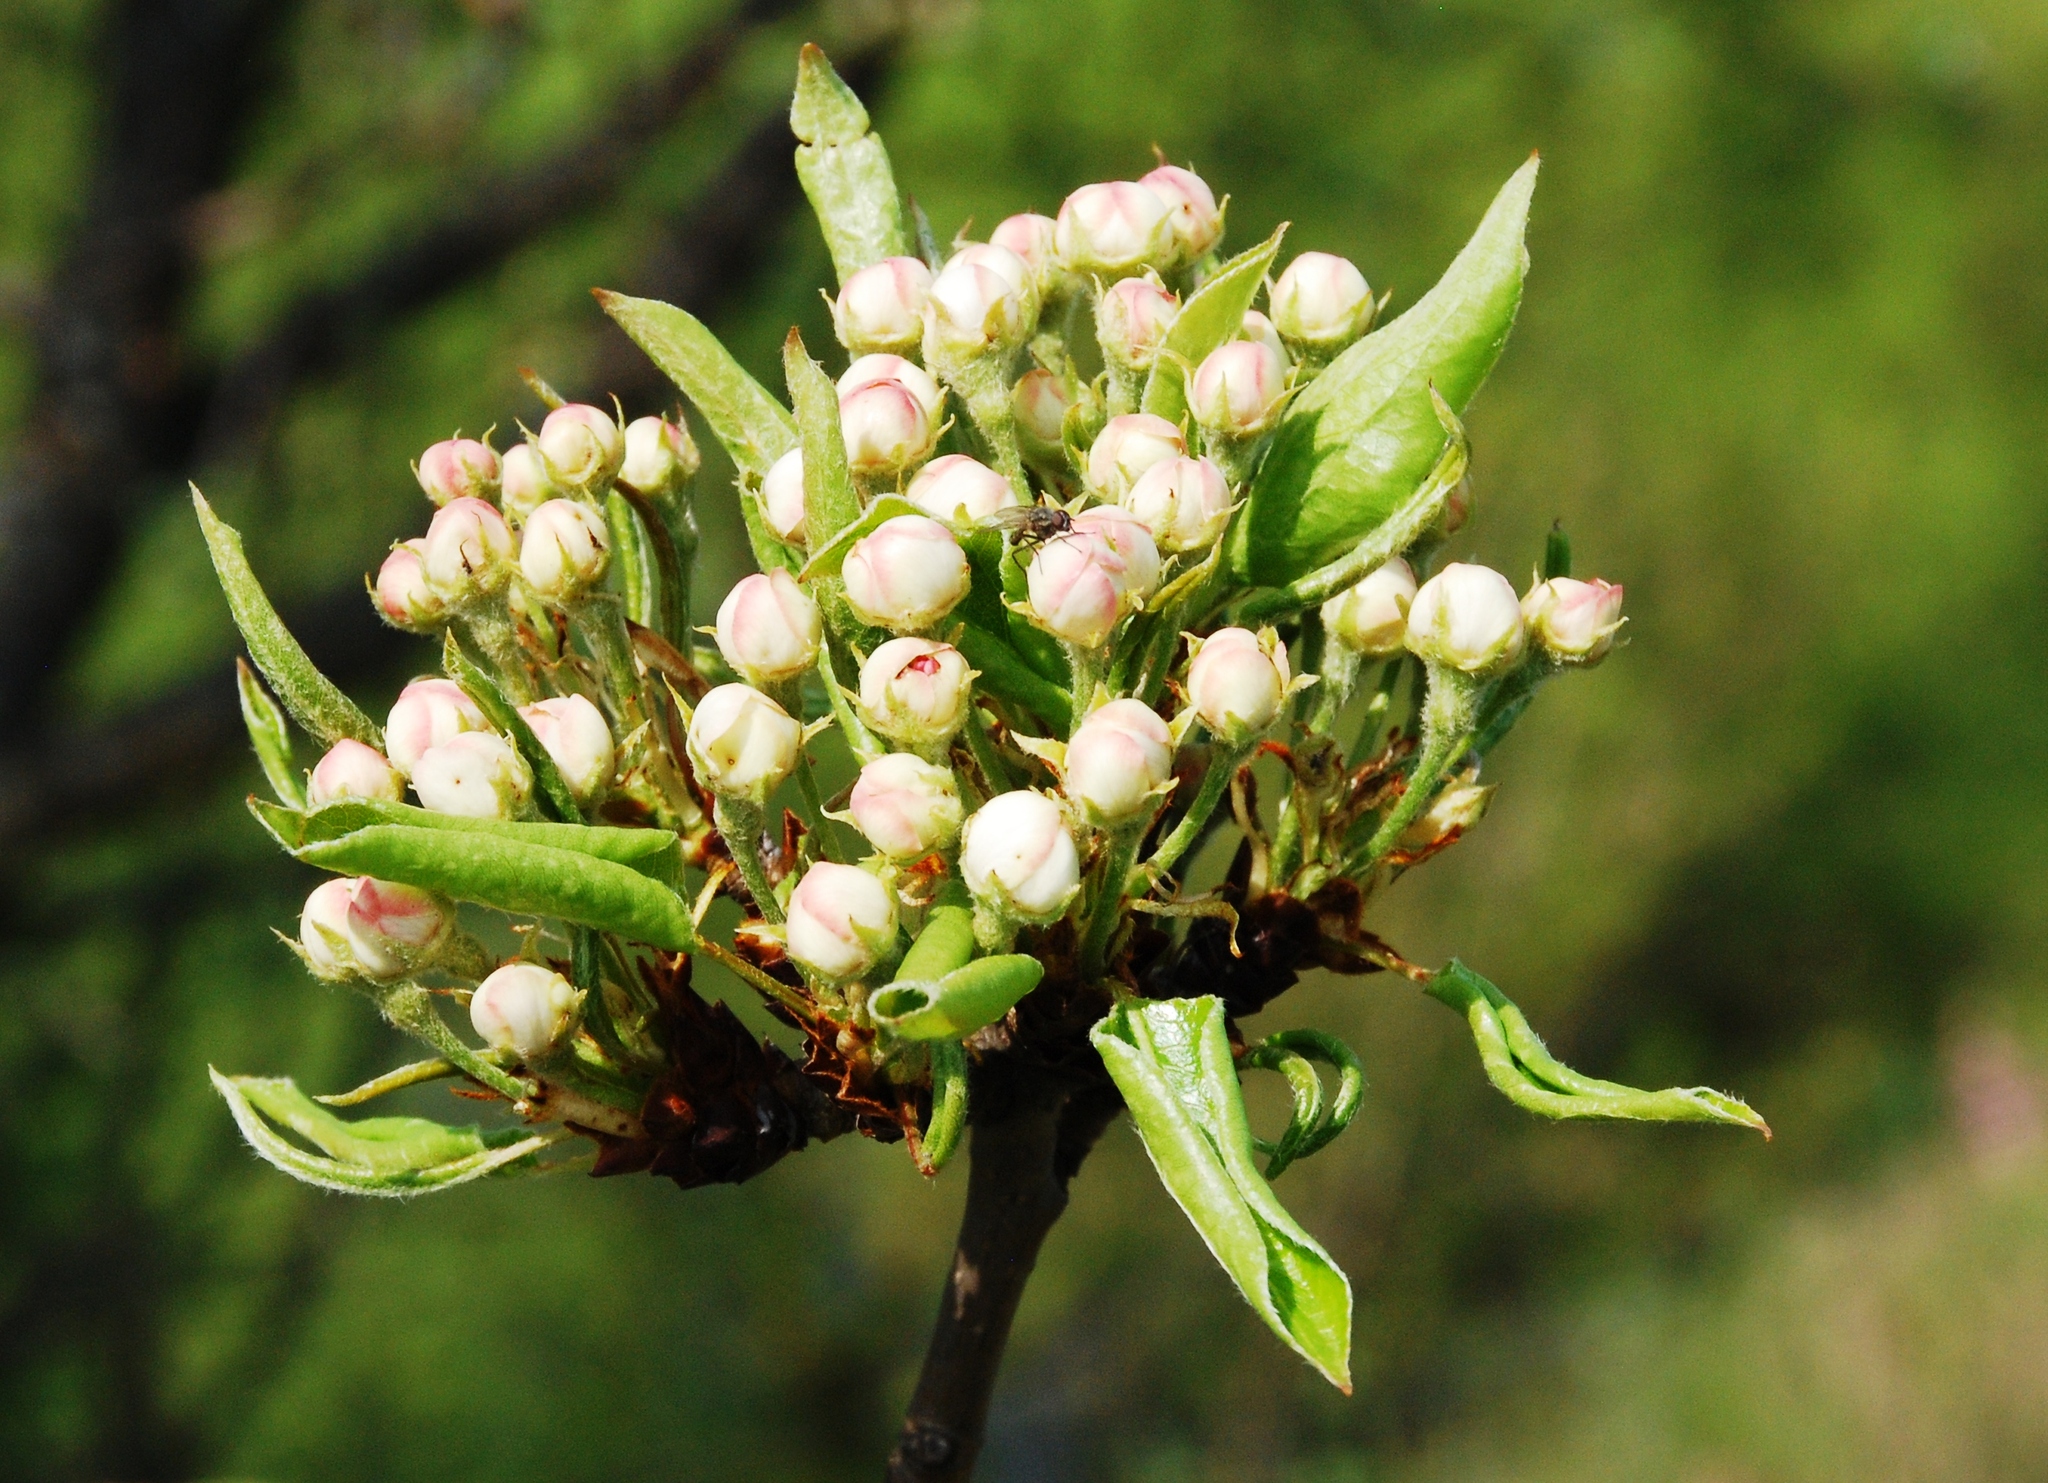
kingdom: Plantae
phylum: Tracheophyta
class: Magnoliopsida
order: Rosales
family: Rosaceae
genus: Pyrus
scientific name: Pyrus communis
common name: Pear
